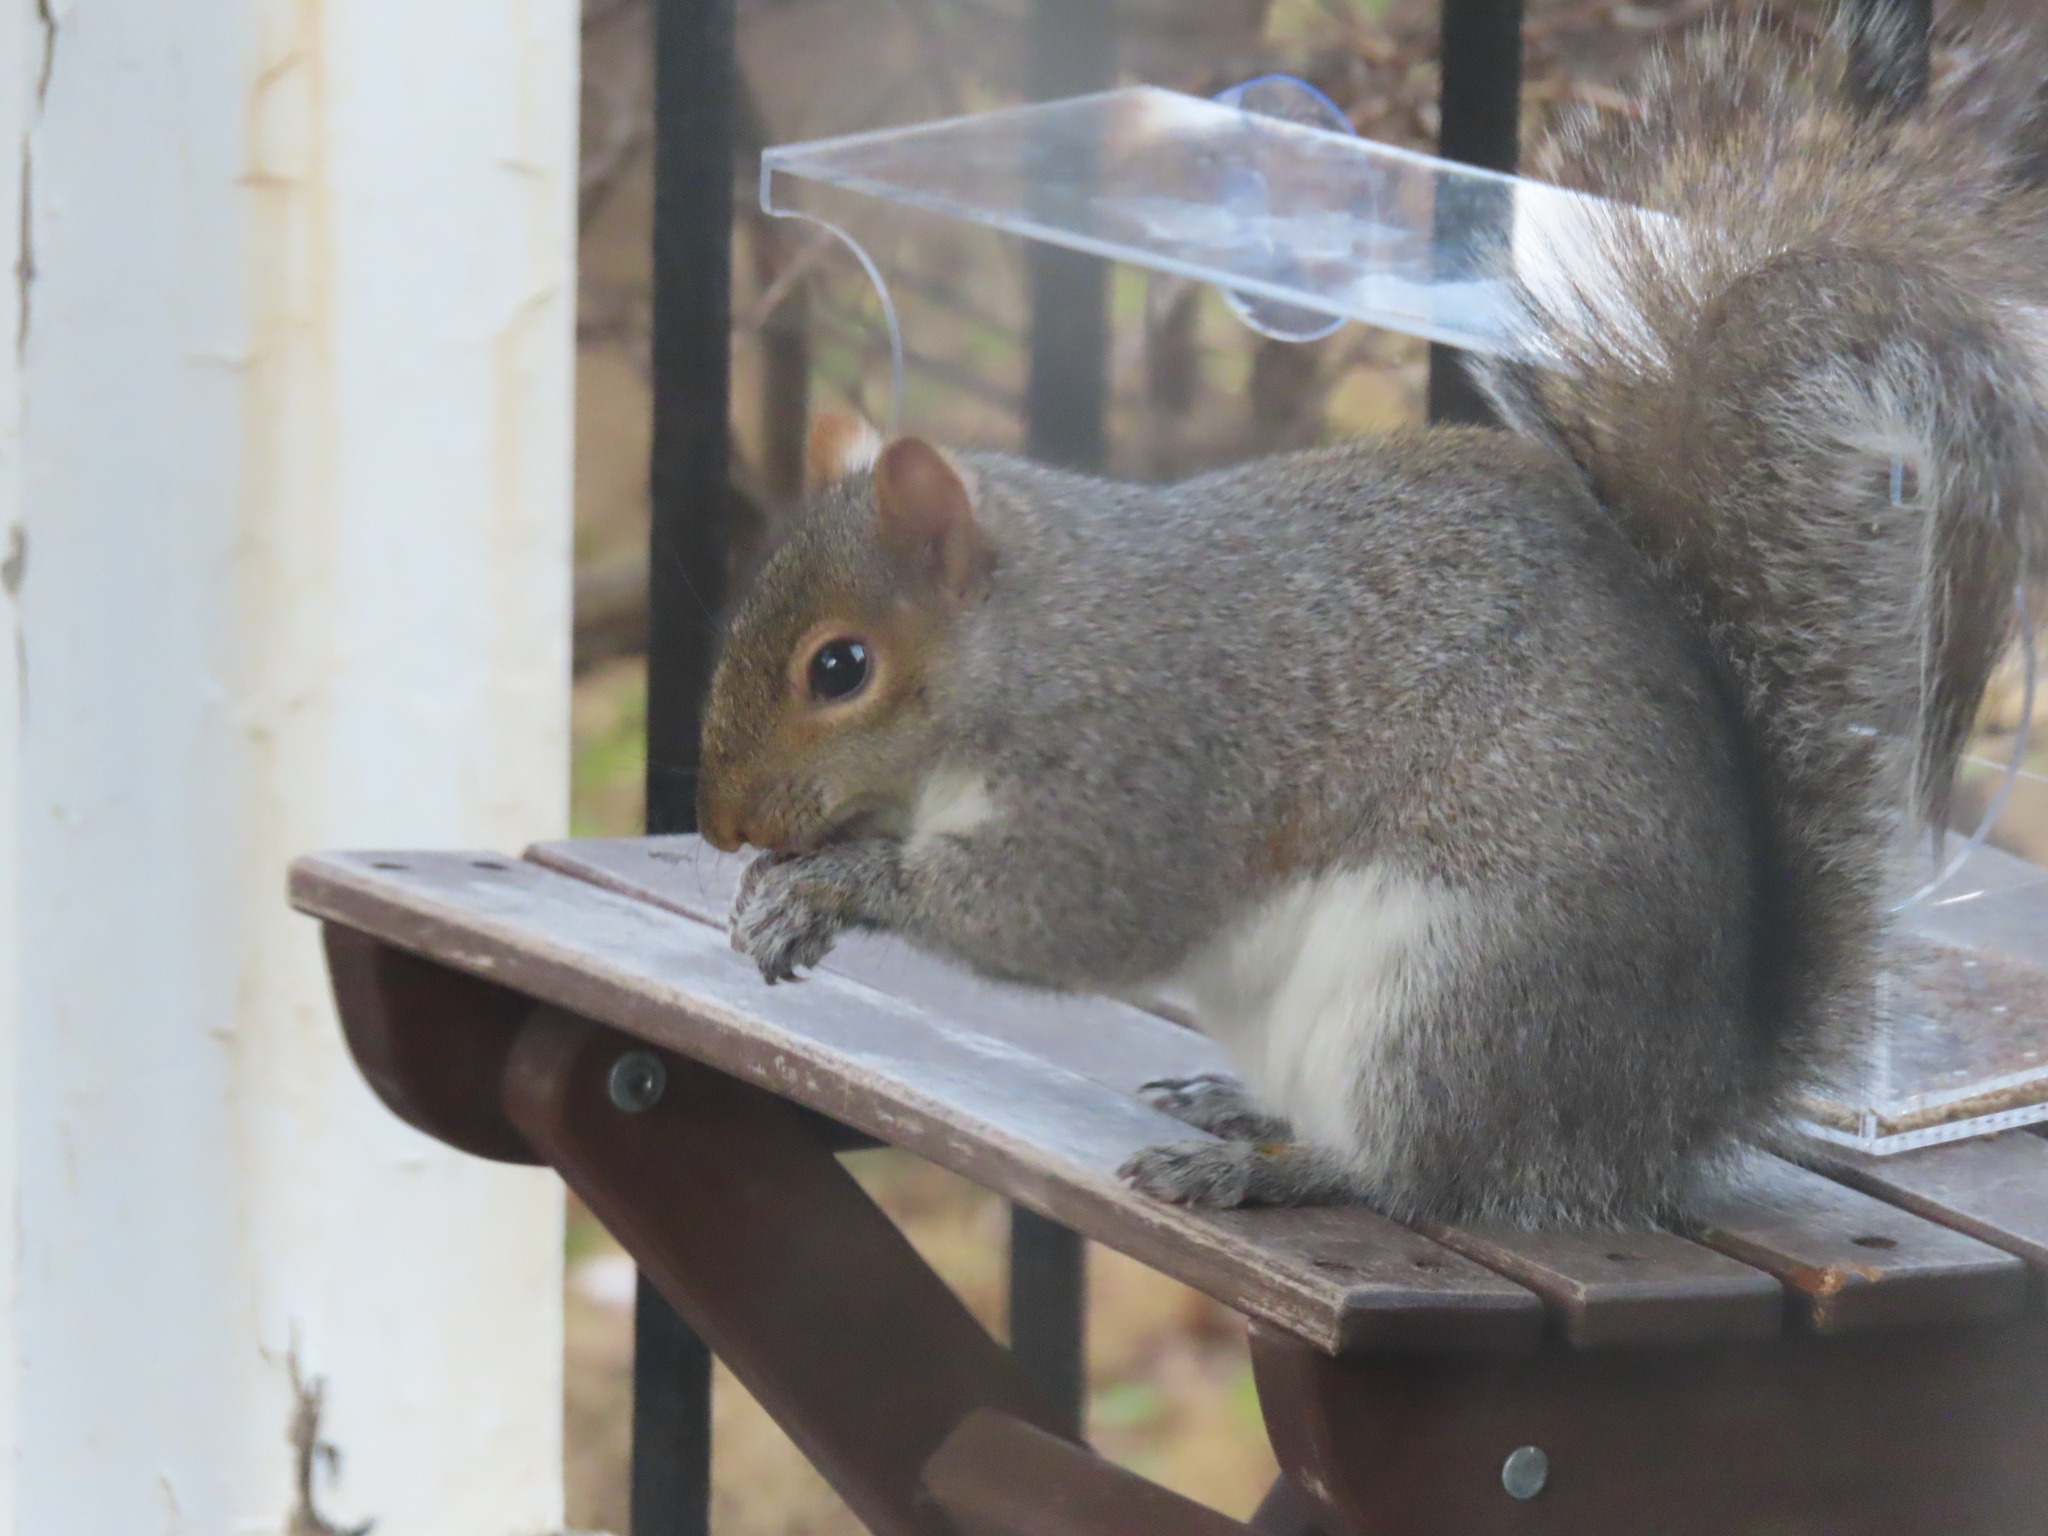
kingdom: Animalia
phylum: Chordata
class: Mammalia
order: Rodentia
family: Sciuridae
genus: Sciurus
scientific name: Sciurus carolinensis
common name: Eastern gray squirrel
